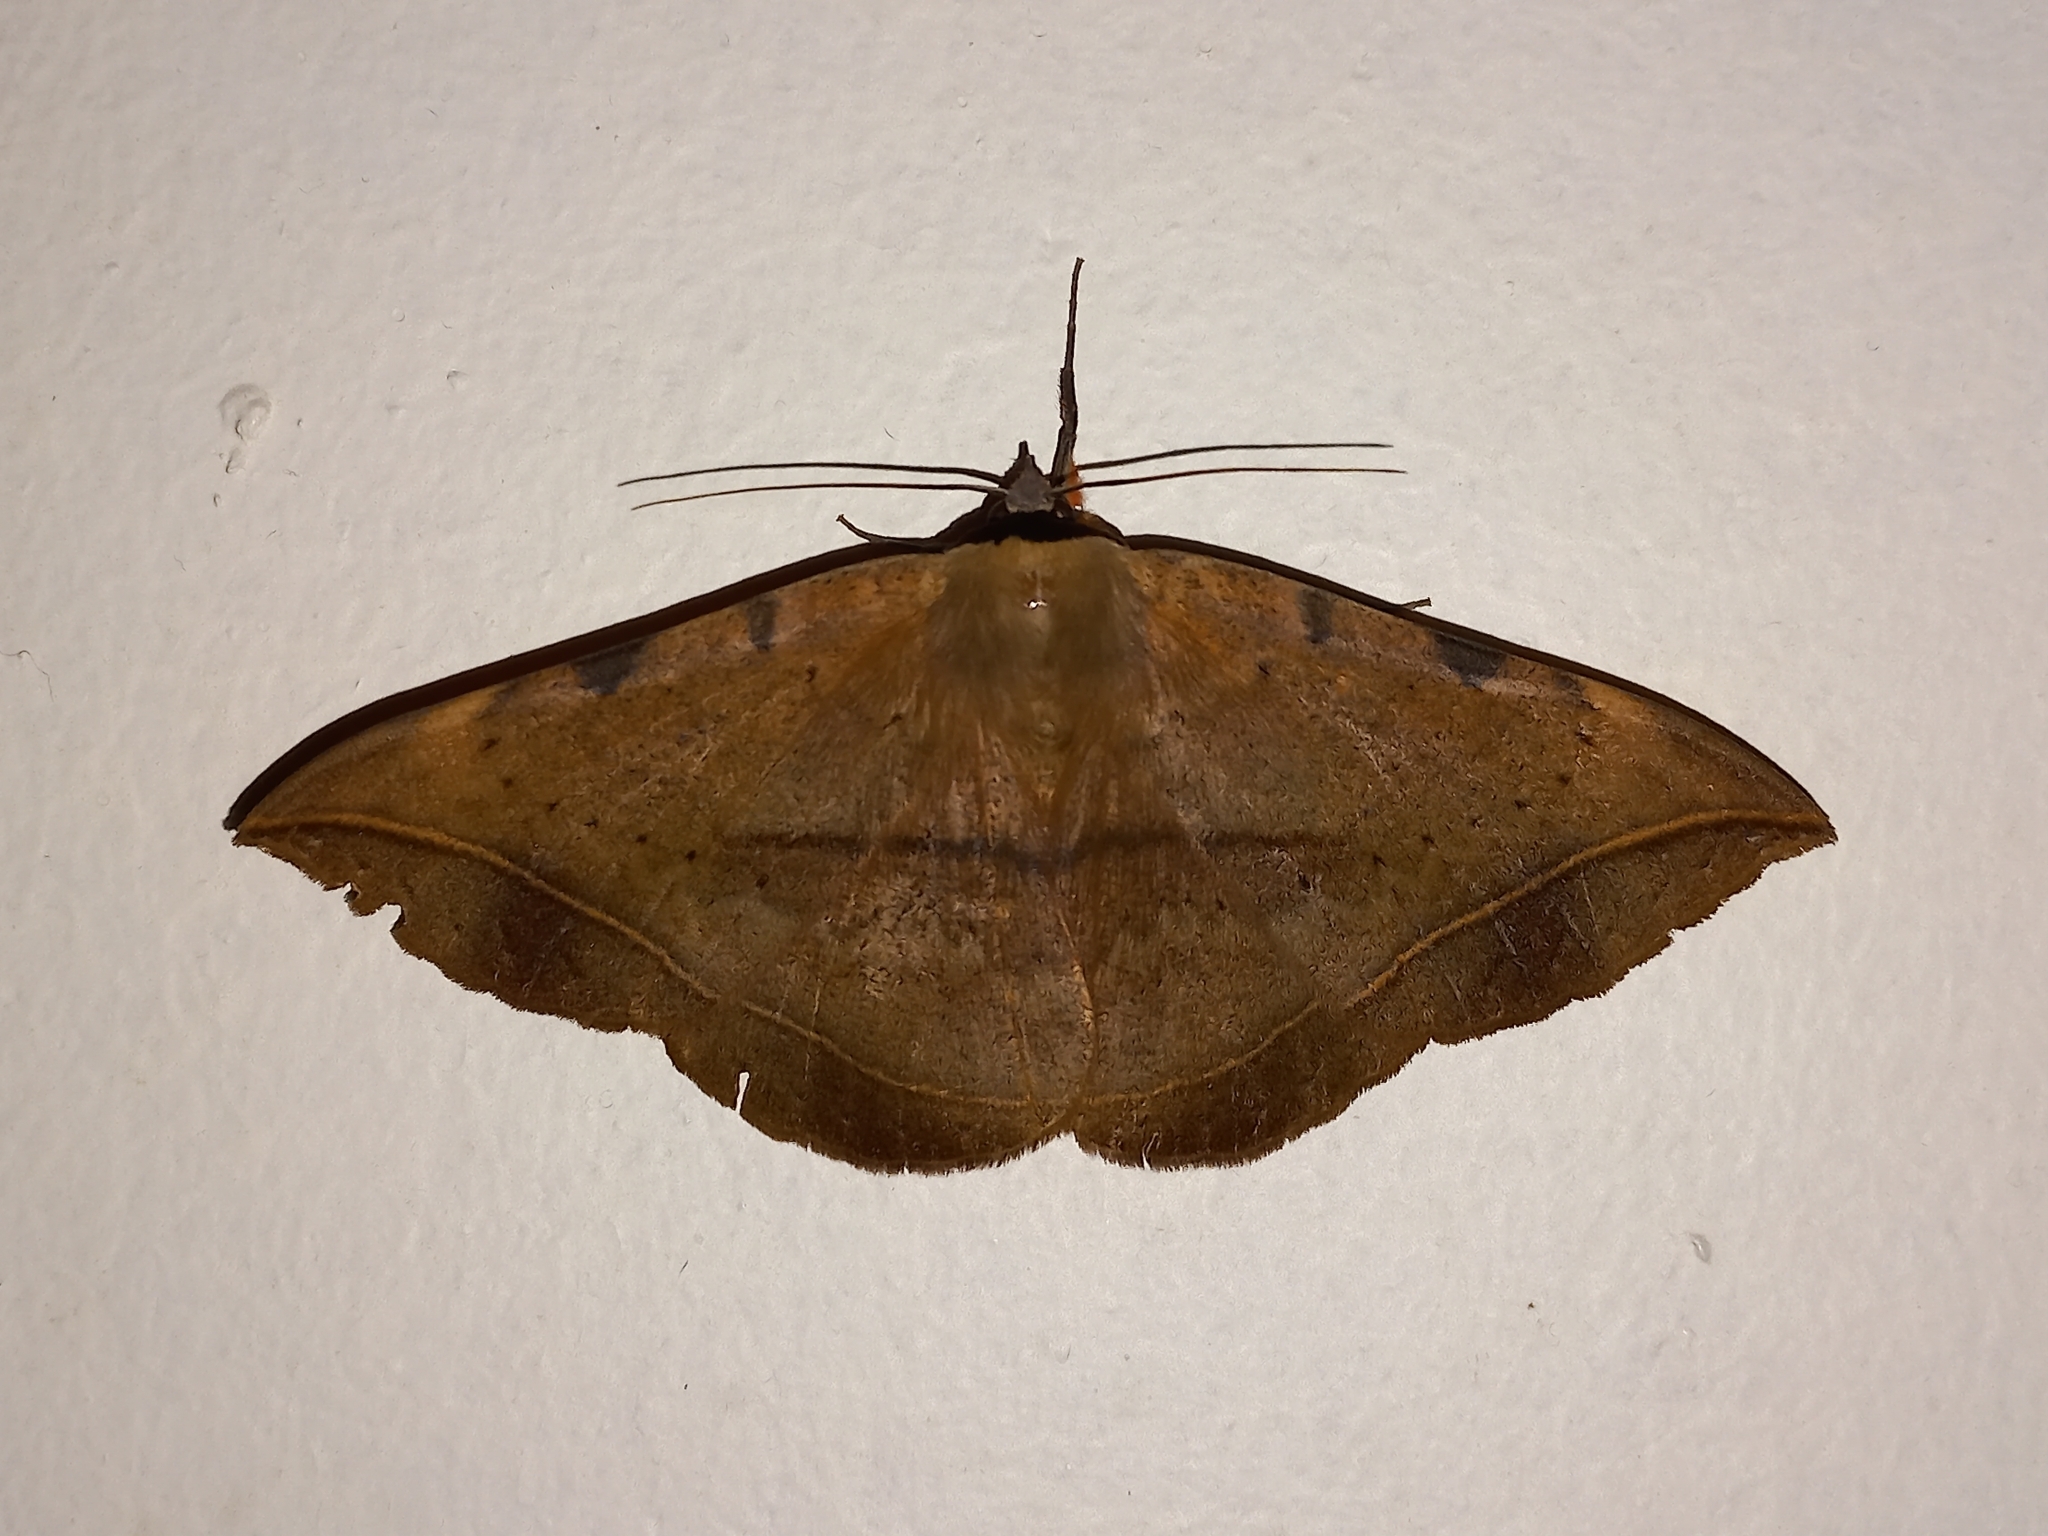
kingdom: Animalia
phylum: Arthropoda
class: Insecta
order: Lepidoptera
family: Erebidae
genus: Hypopyra
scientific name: Hypopyra capensis
